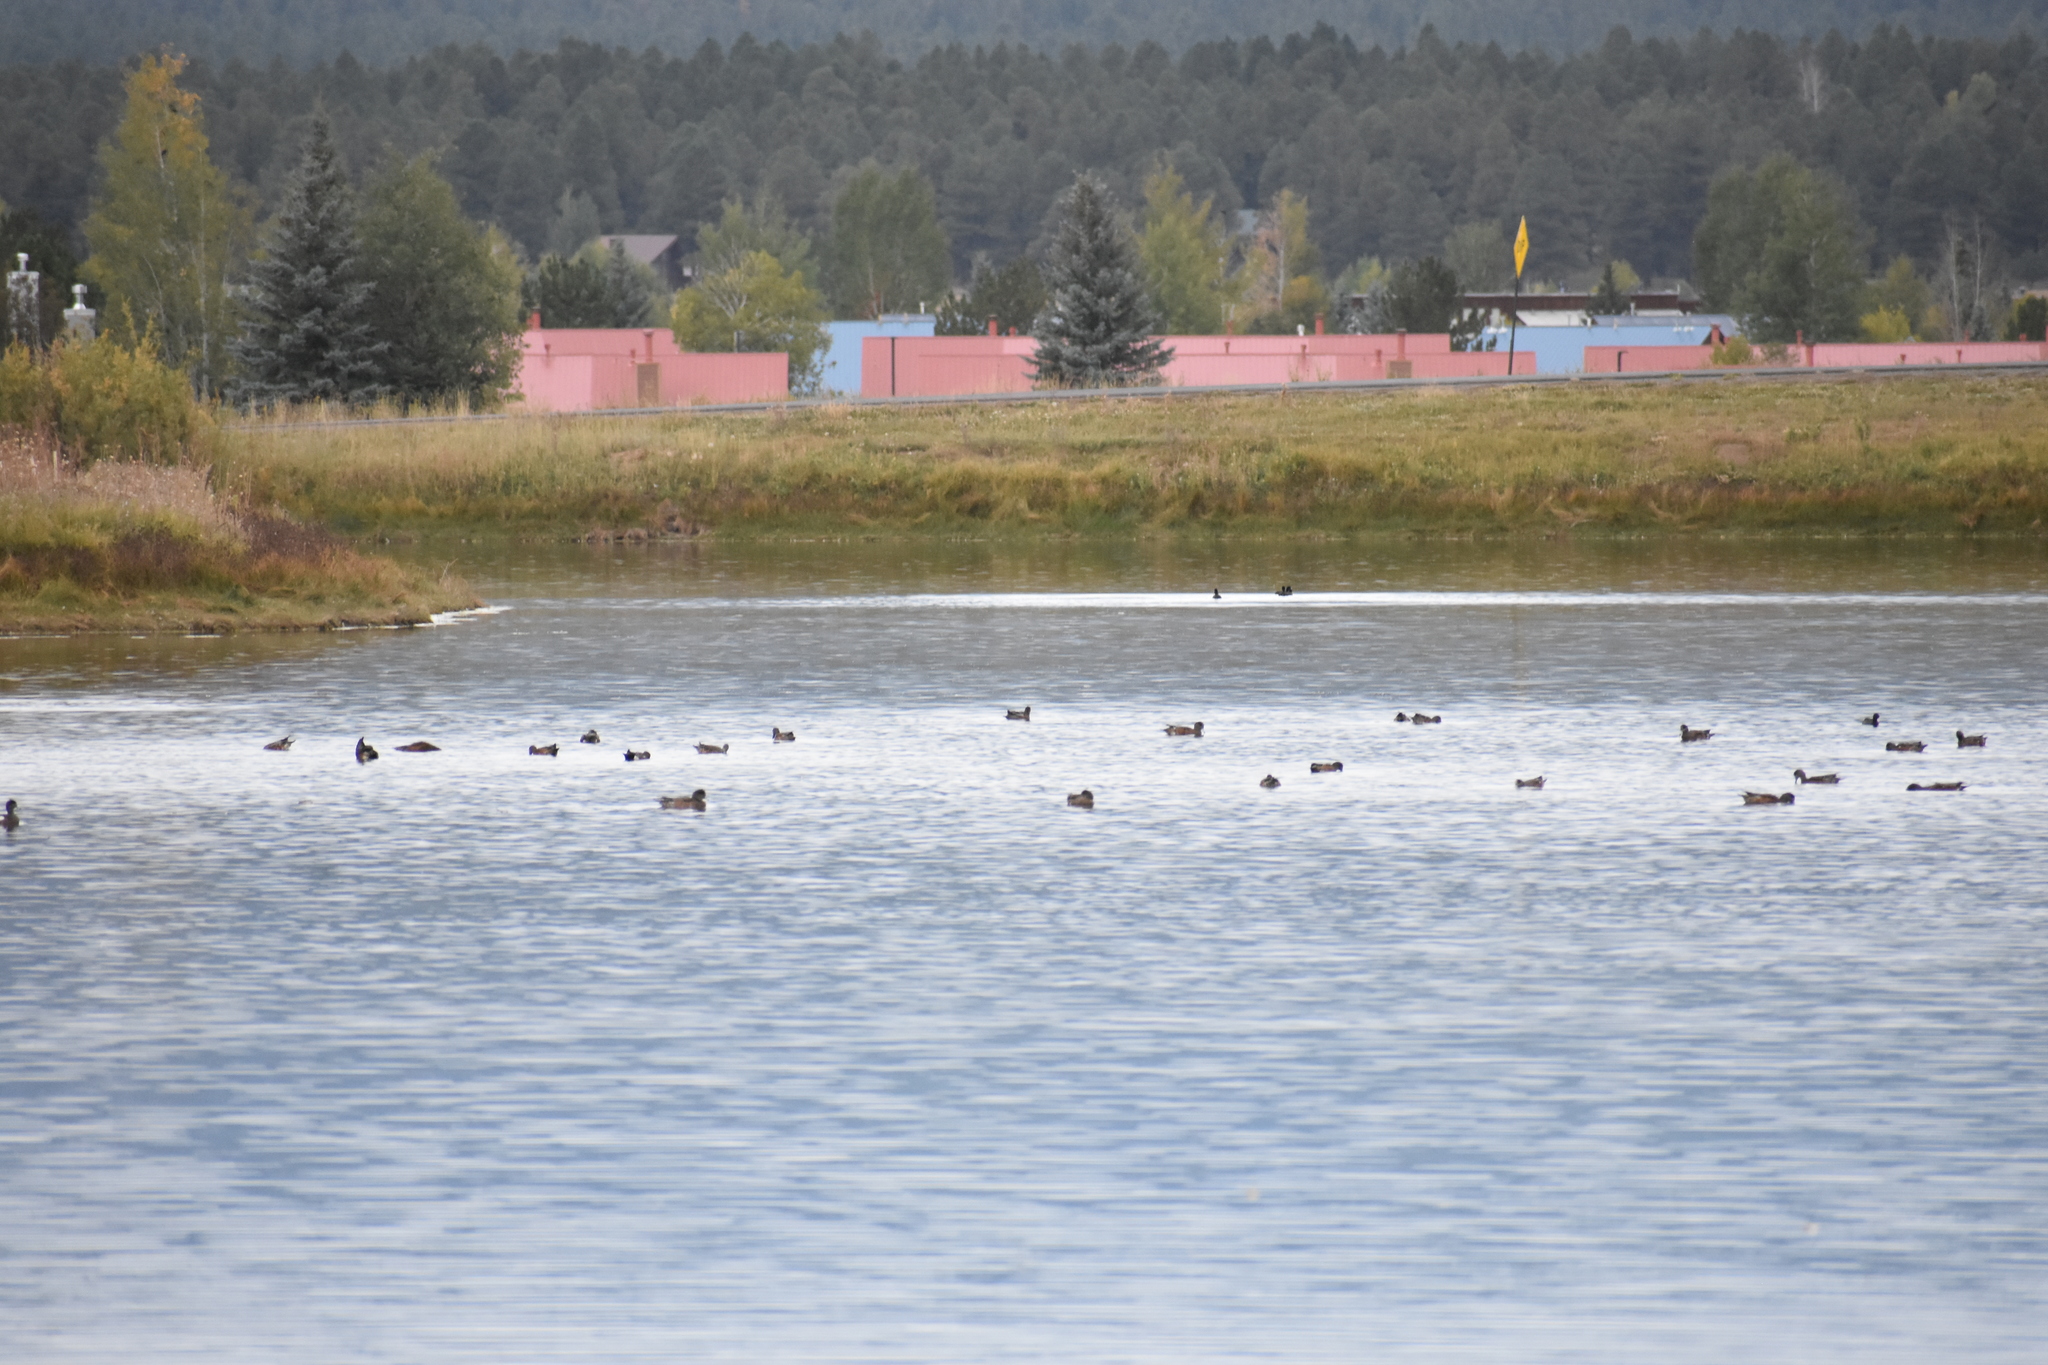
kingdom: Animalia
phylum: Chordata
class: Aves
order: Anseriformes
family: Anatidae
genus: Mareca
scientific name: Mareca americana
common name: American wigeon
